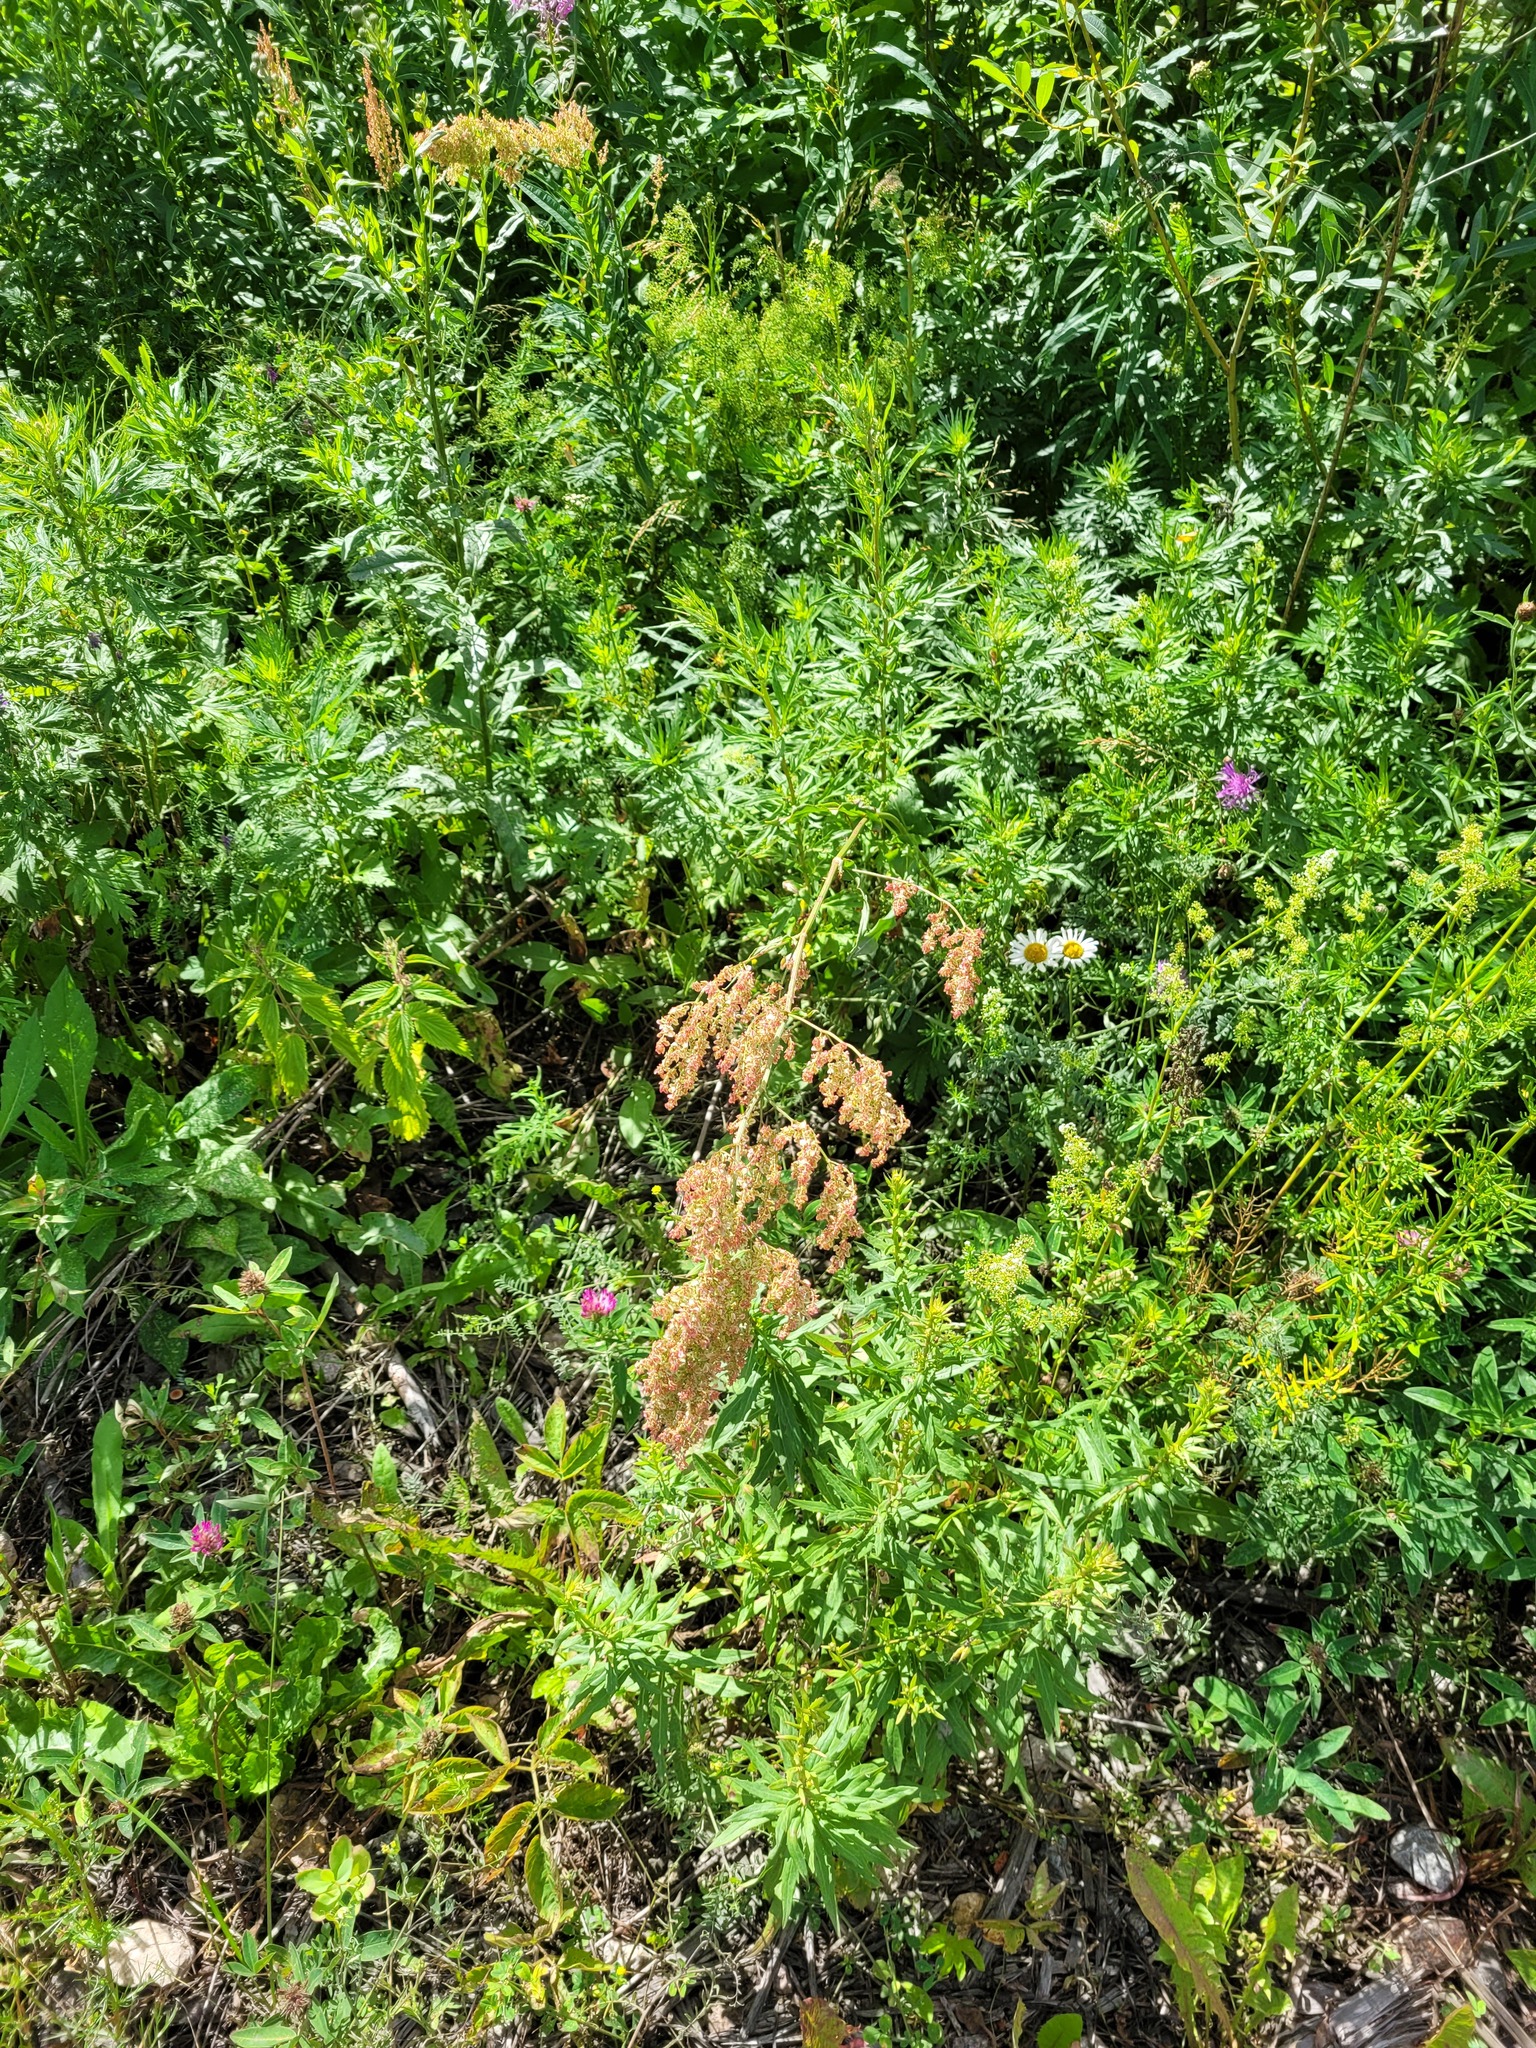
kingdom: Plantae
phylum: Tracheophyta
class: Magnoliopsida
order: Caryophyllales
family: Polygonaceae
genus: Rumex
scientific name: Rumex thyrsiflorus
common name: Garden sorrel
